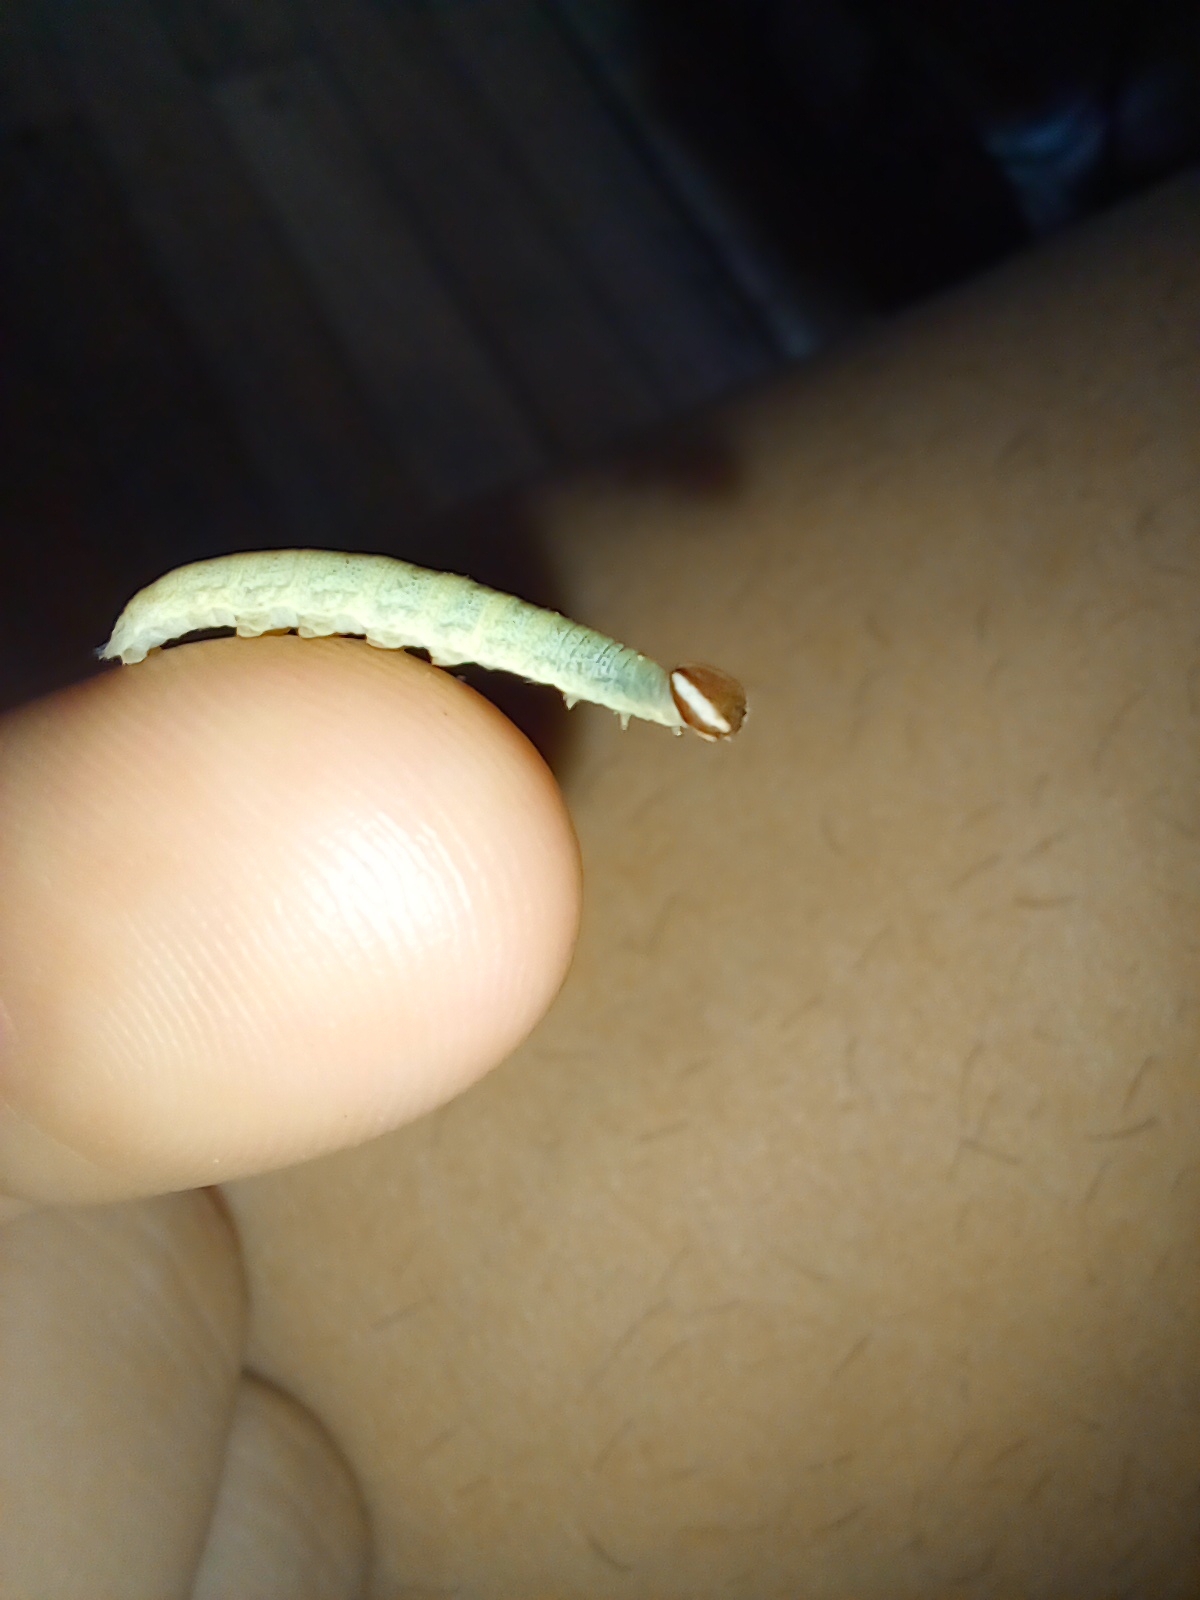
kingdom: Animalia
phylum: Arthropoda
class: Insecta
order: Lepidoptera
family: Hesperiidae
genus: Quinta
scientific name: Quinta cannae
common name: Canna skipper
